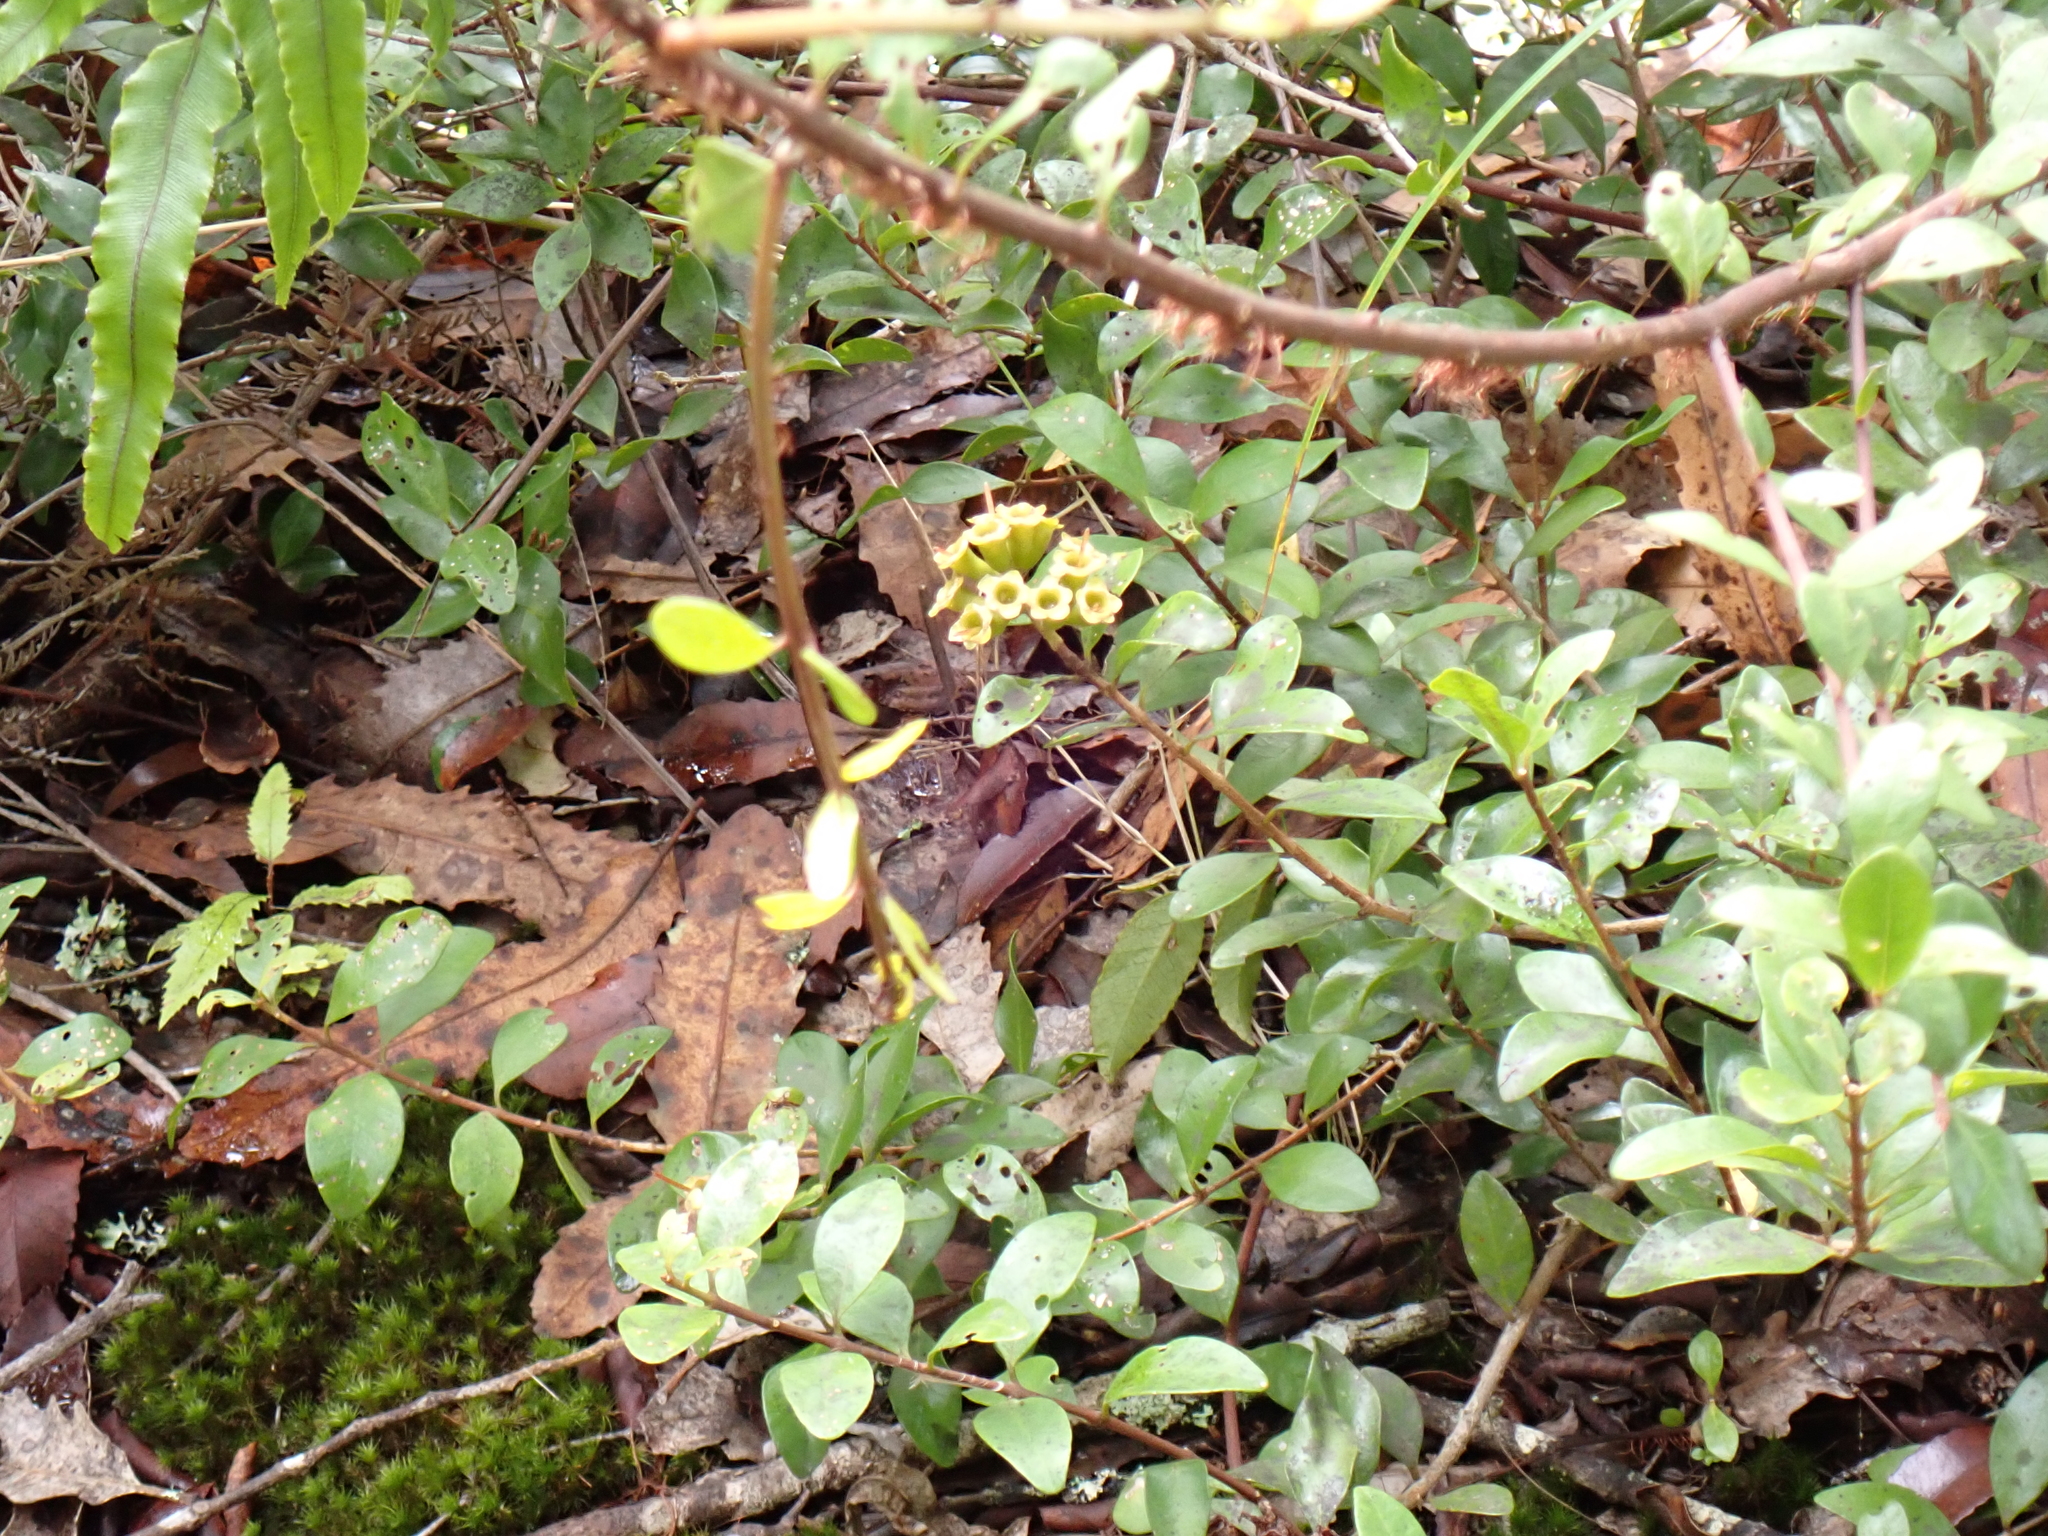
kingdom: Plantae
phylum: Tracheophyta
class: Magnoliopsida
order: Myrtales
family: Myrtaceae
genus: Metrosideros
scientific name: Metrosideros fulgens
